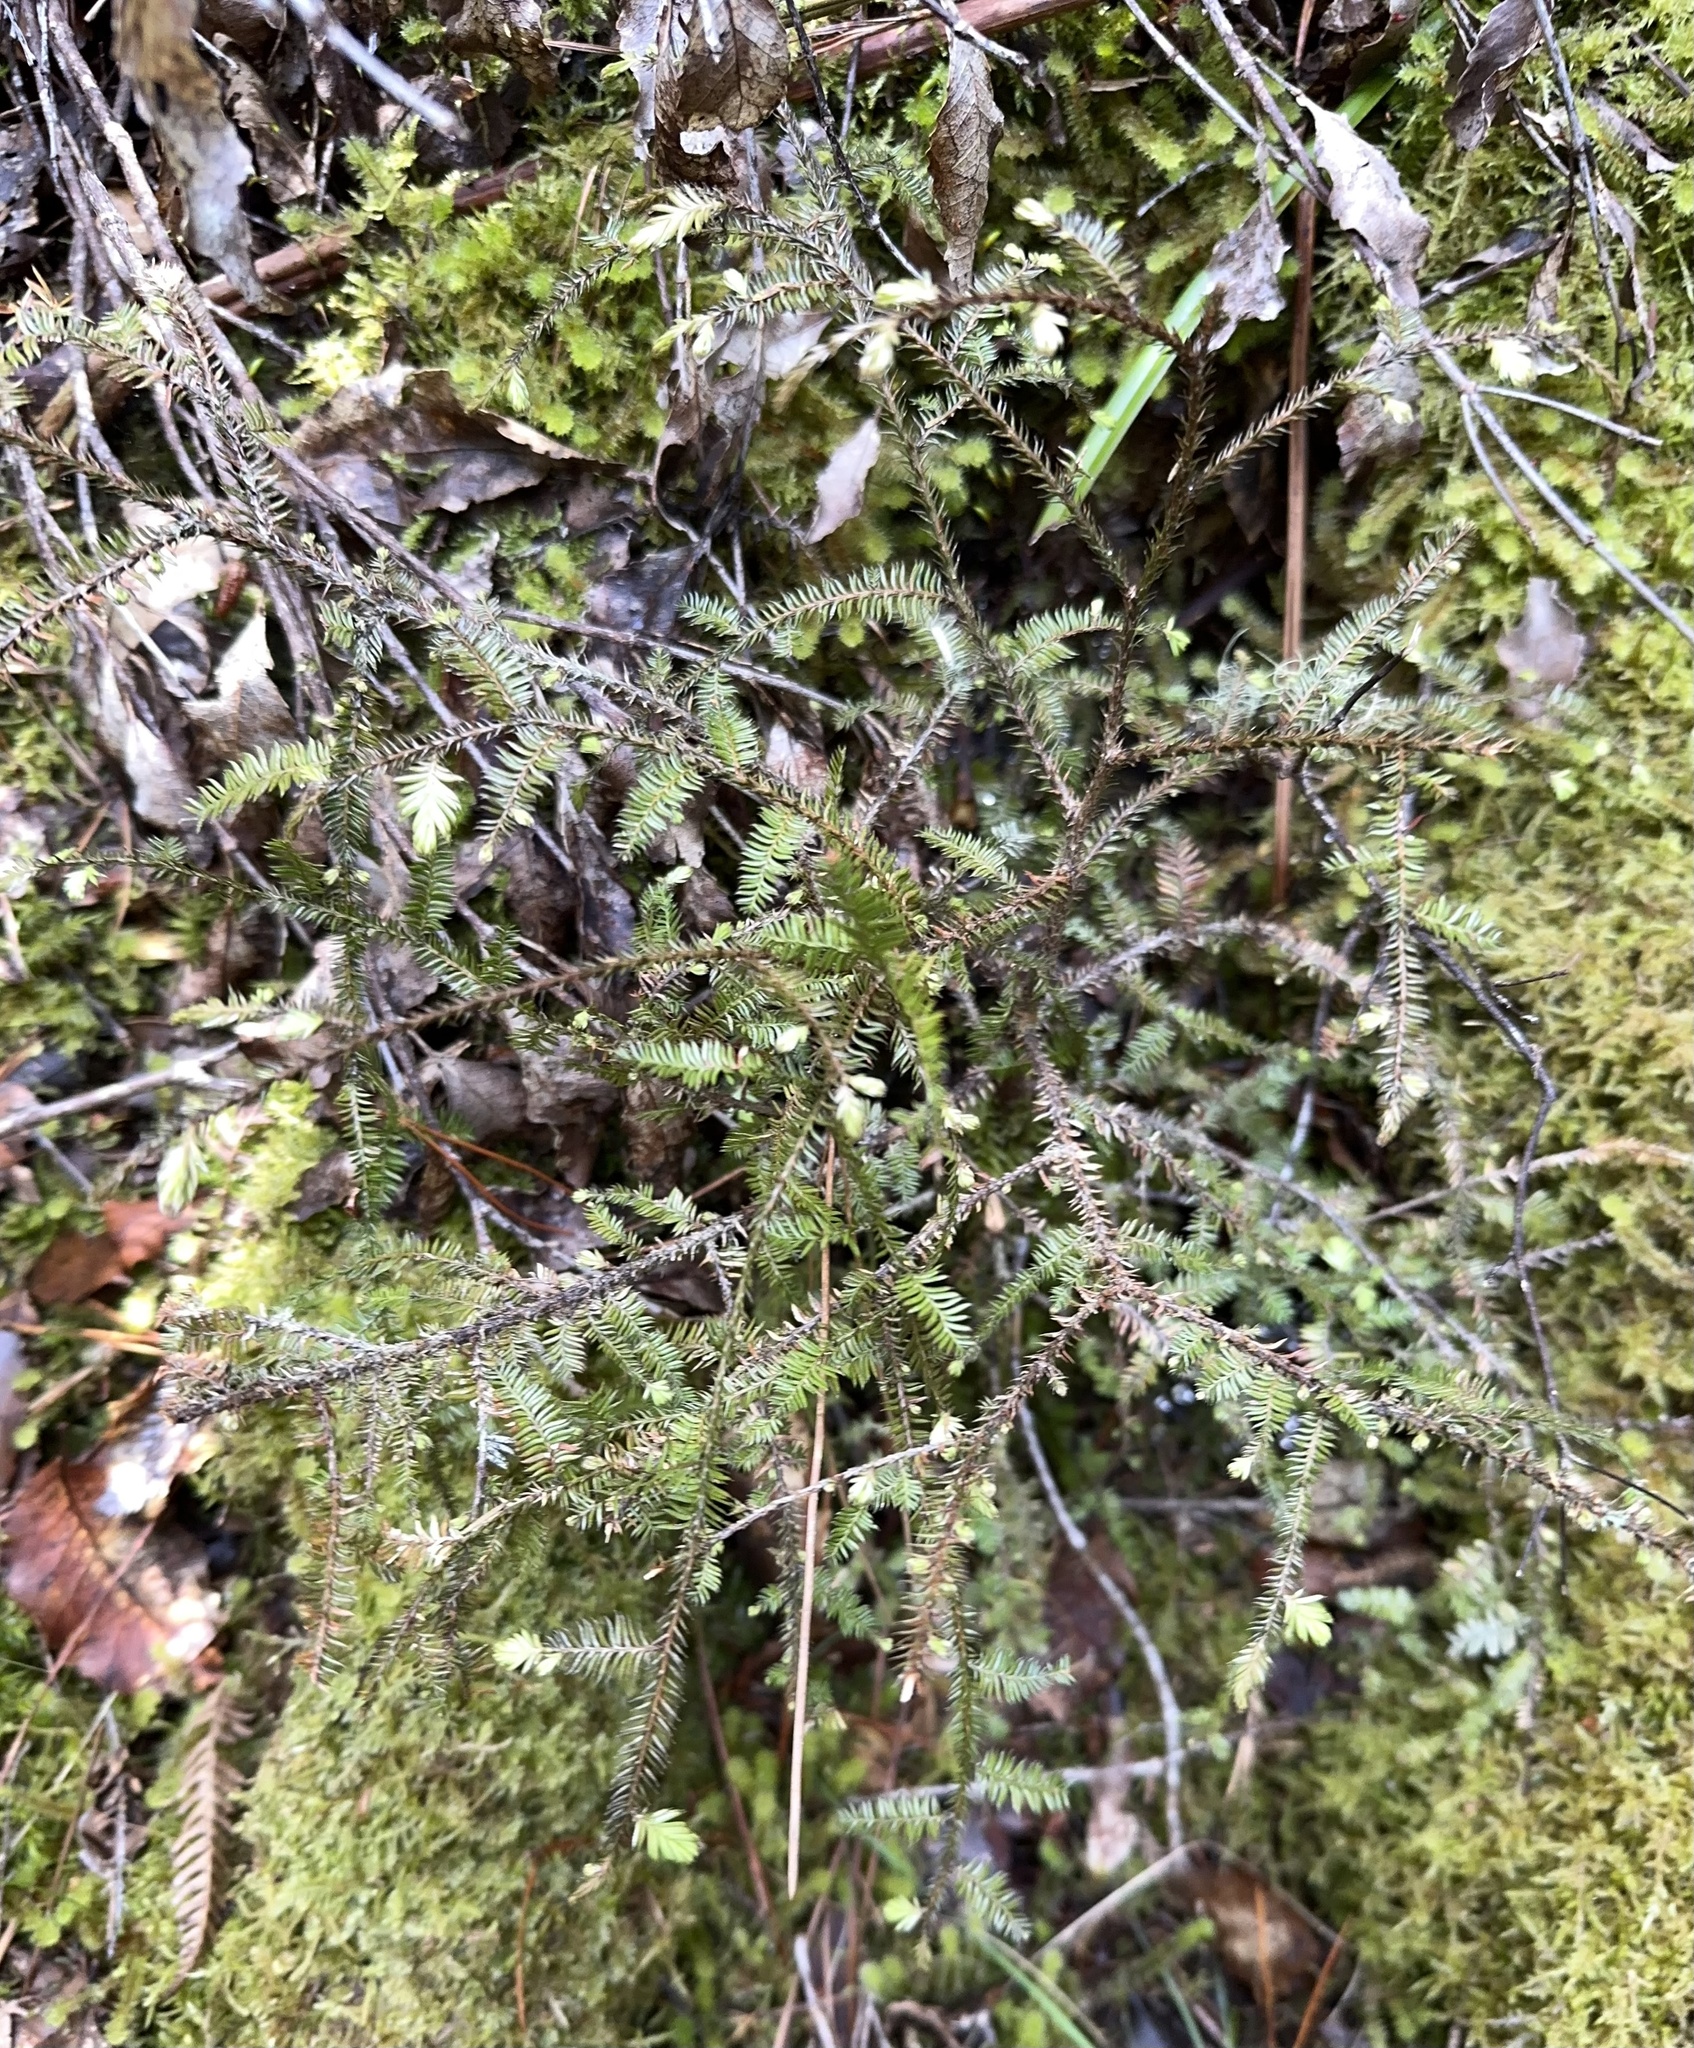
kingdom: Plantae
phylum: Tracheophyta
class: Pinopsida
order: Pinales
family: Podocarpaceae
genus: Dacrycarpus
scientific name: Dacrycarpus dacrydioides
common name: White pine
